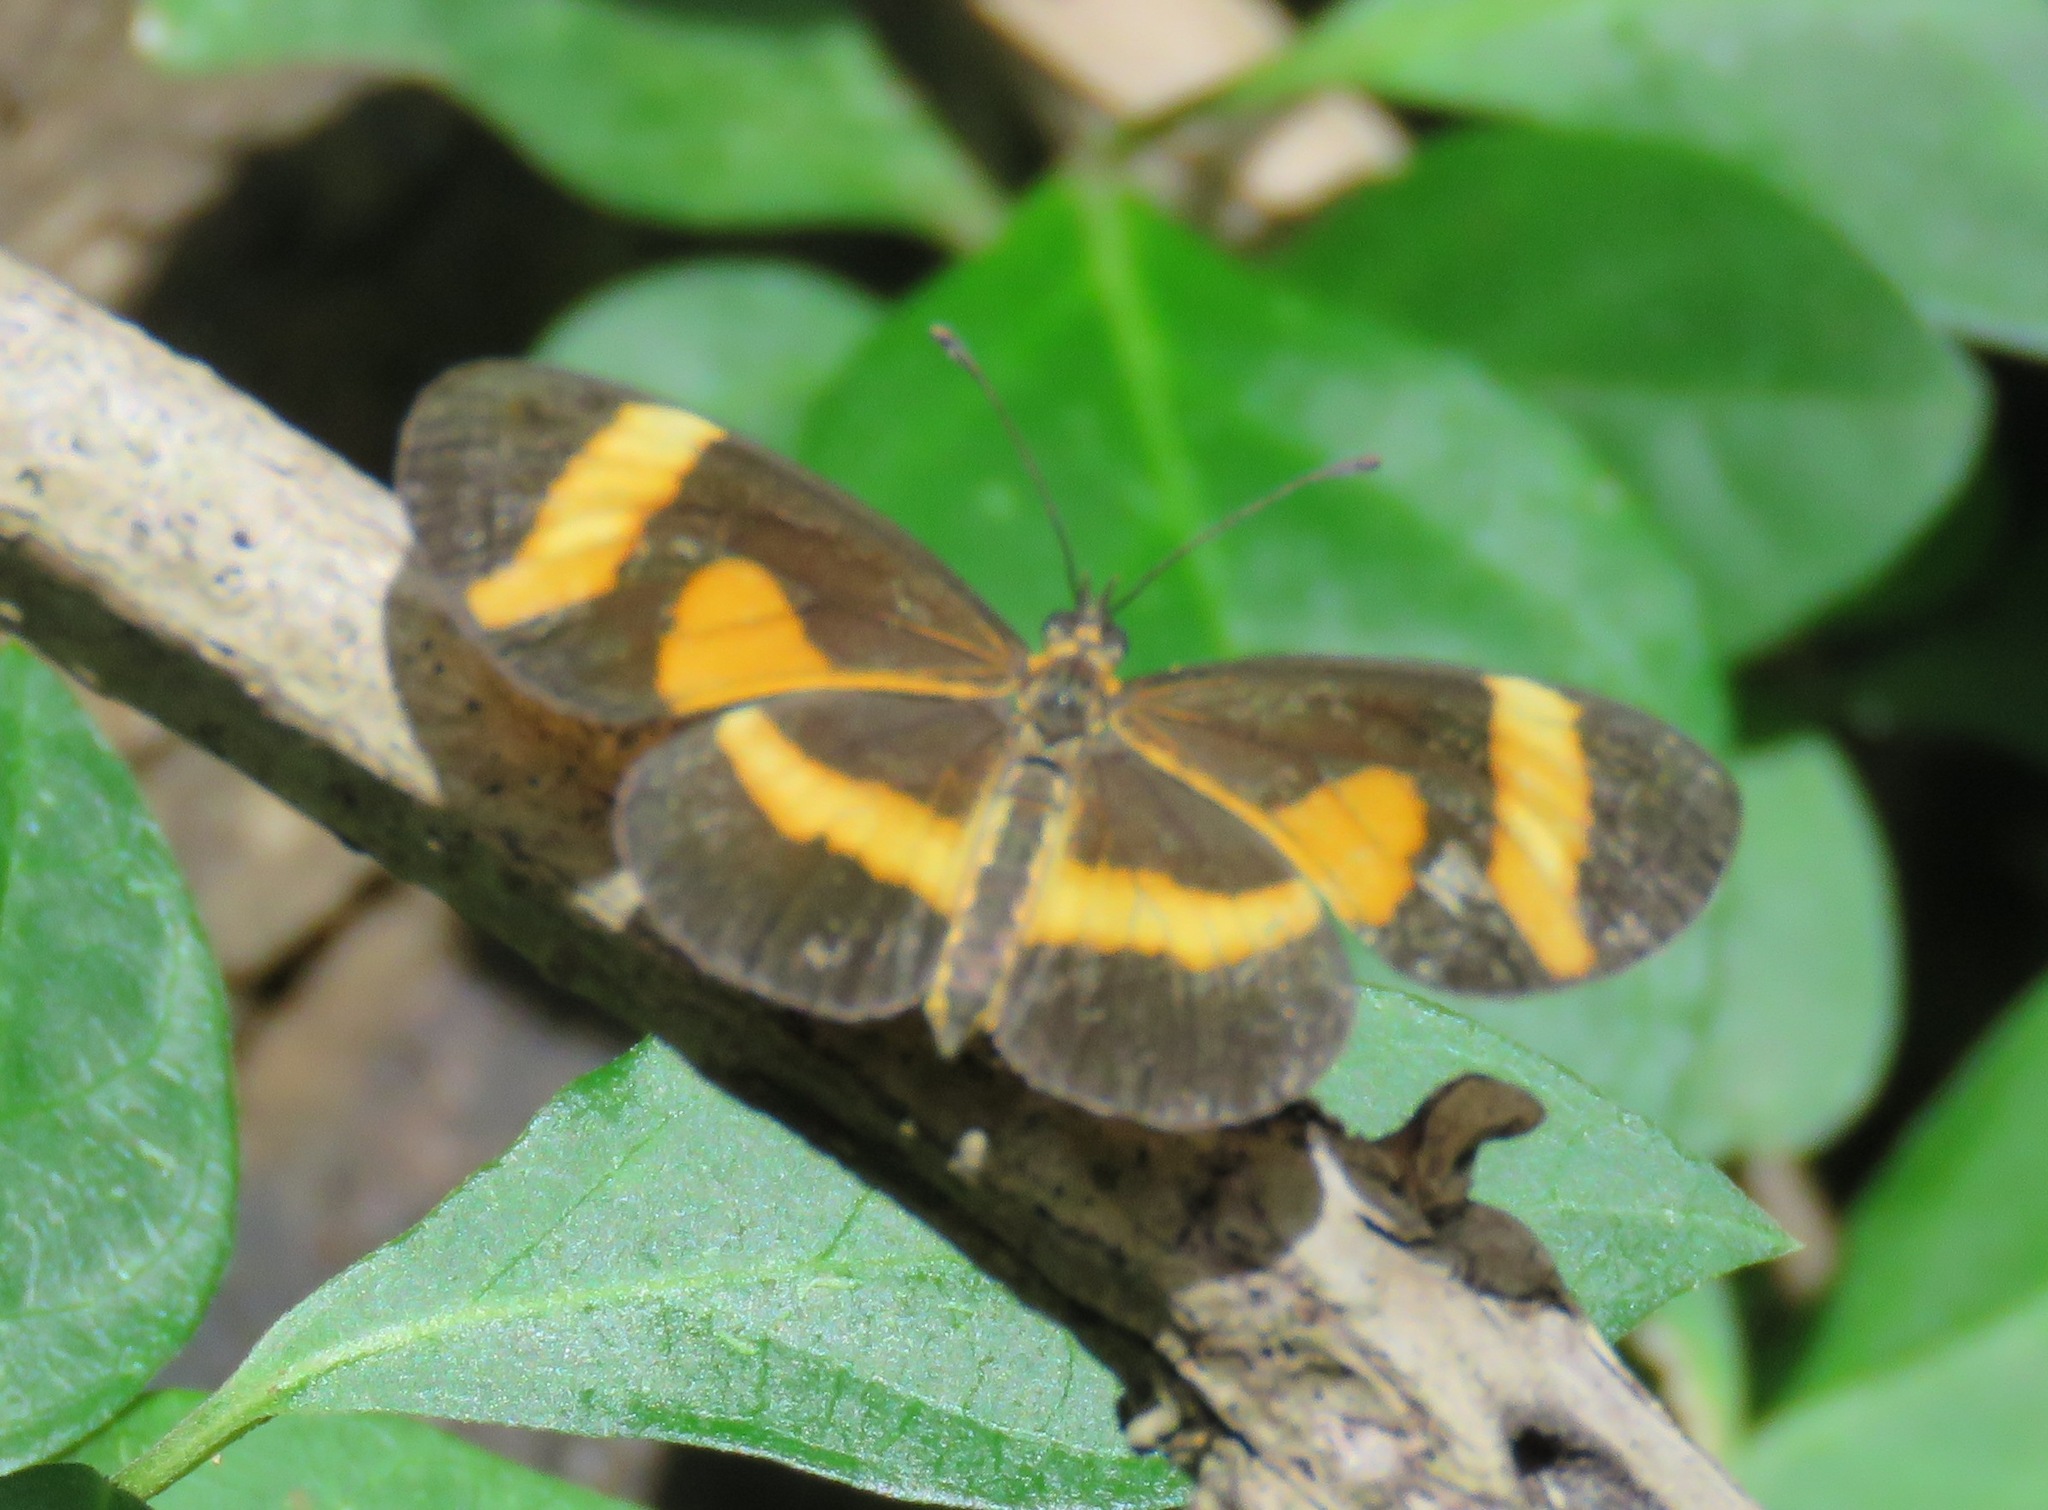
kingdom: Animalia
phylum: Arthropoda
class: Insecta
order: Lepidoptera
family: Nymphalidae
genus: Microtia
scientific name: Microtia elva
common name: Elf
